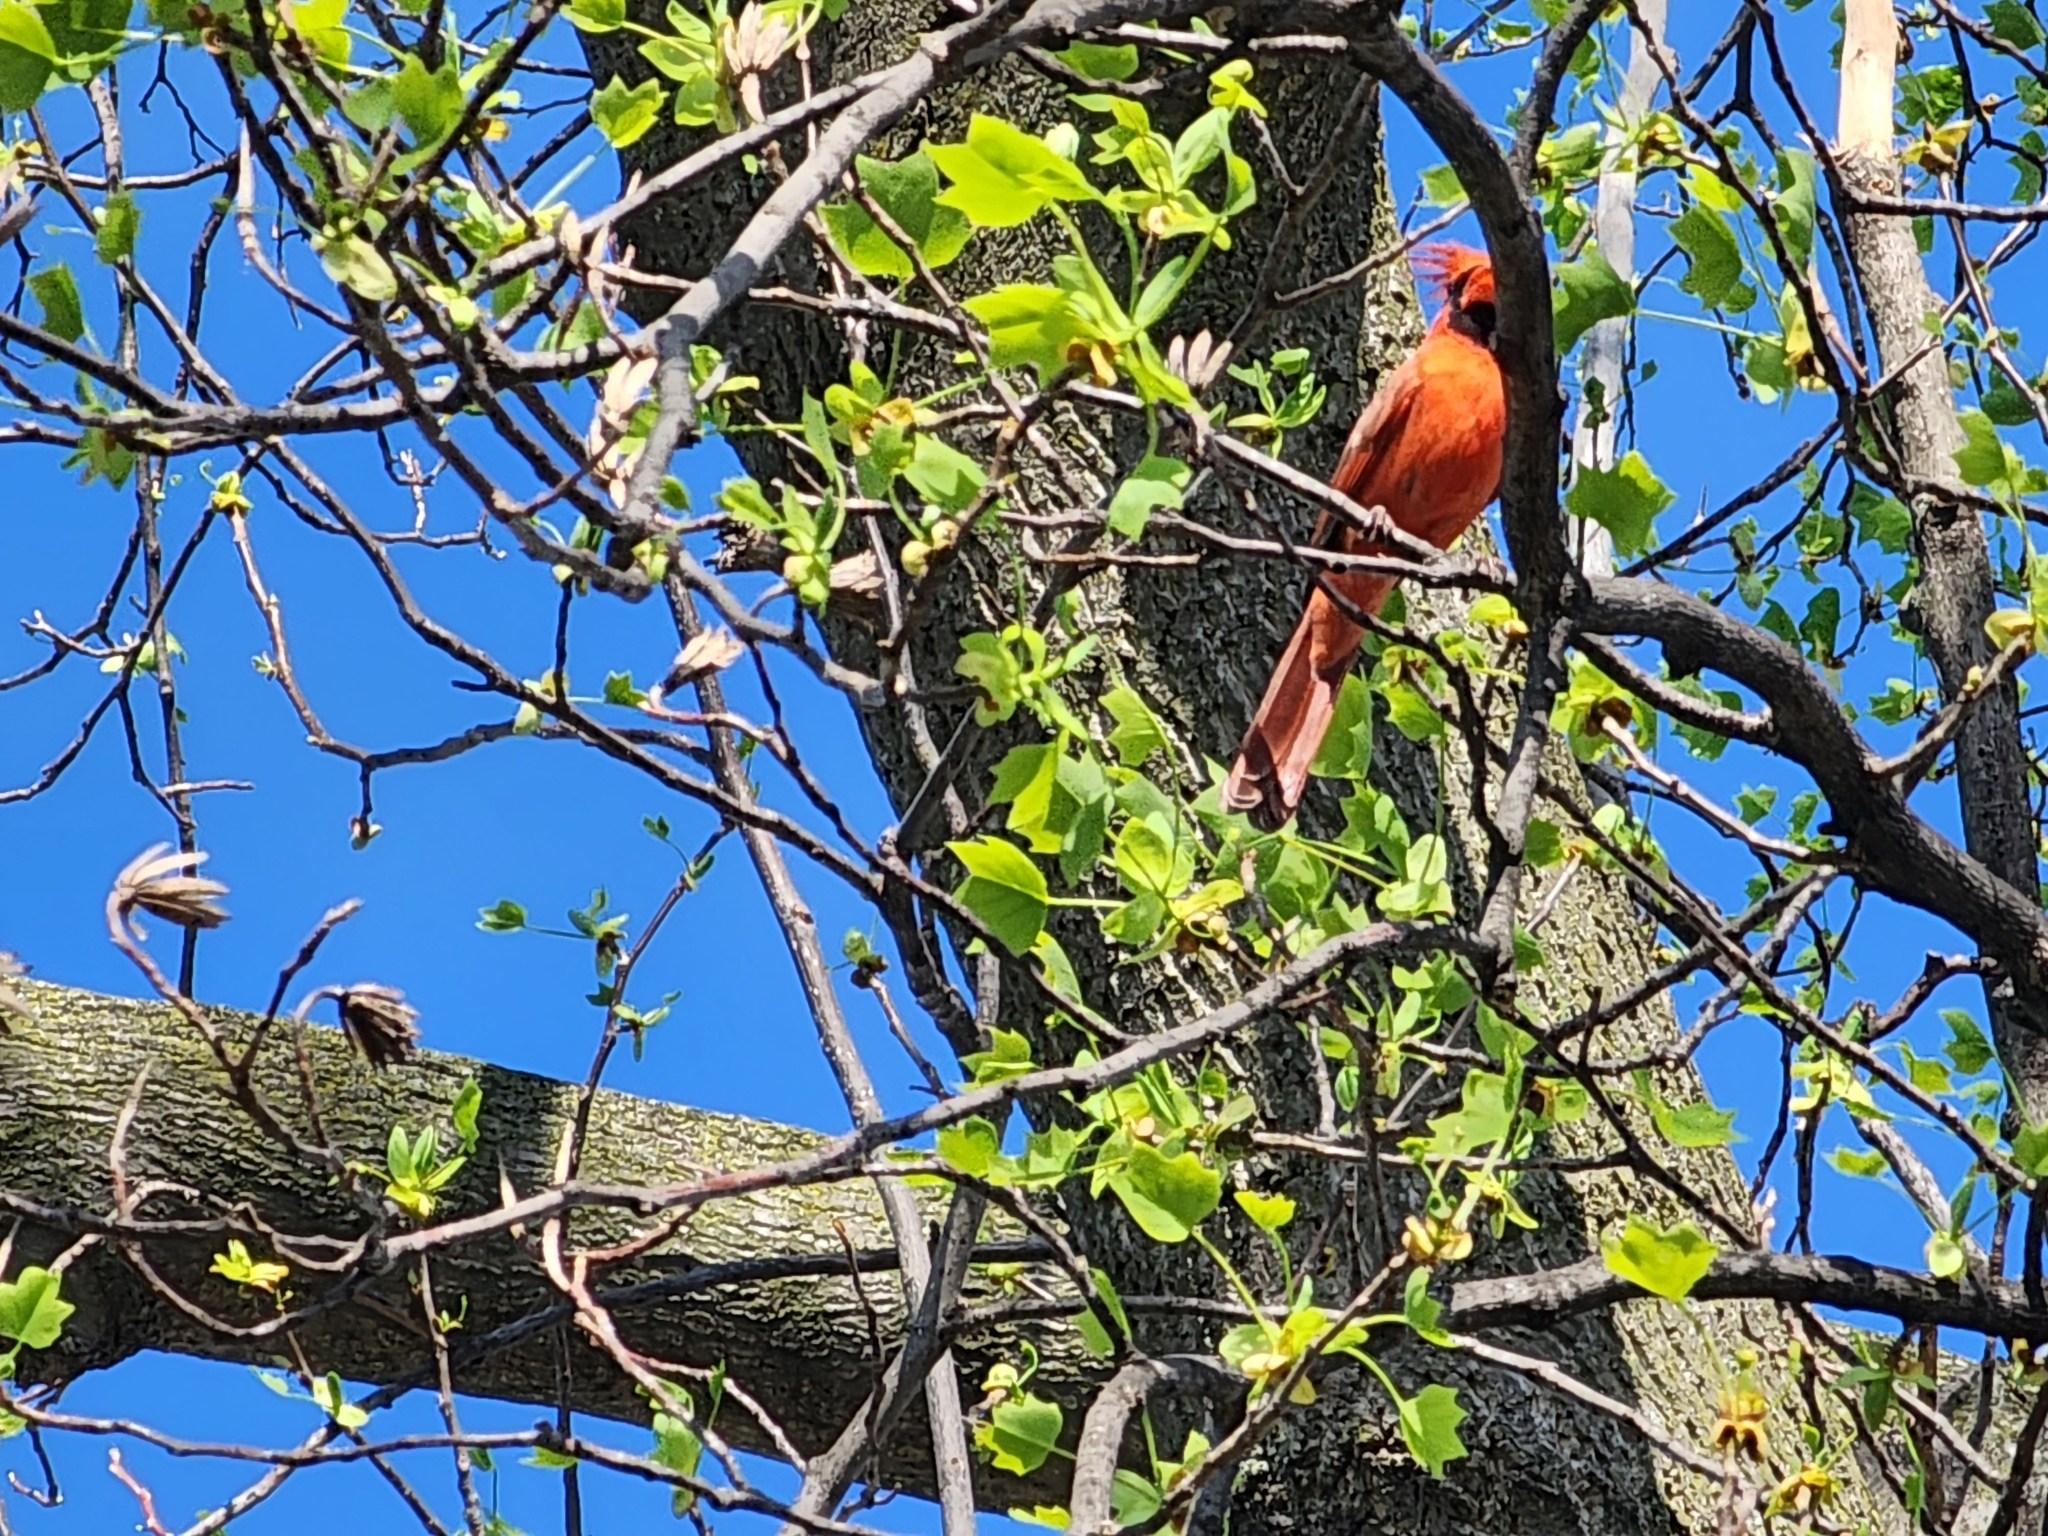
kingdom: Animalia
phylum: Chordata
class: Aves
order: Passeriformes
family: Cardinalidae
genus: Cardinalis
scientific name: Cardinalis cardinalis
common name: Northern cardinal
